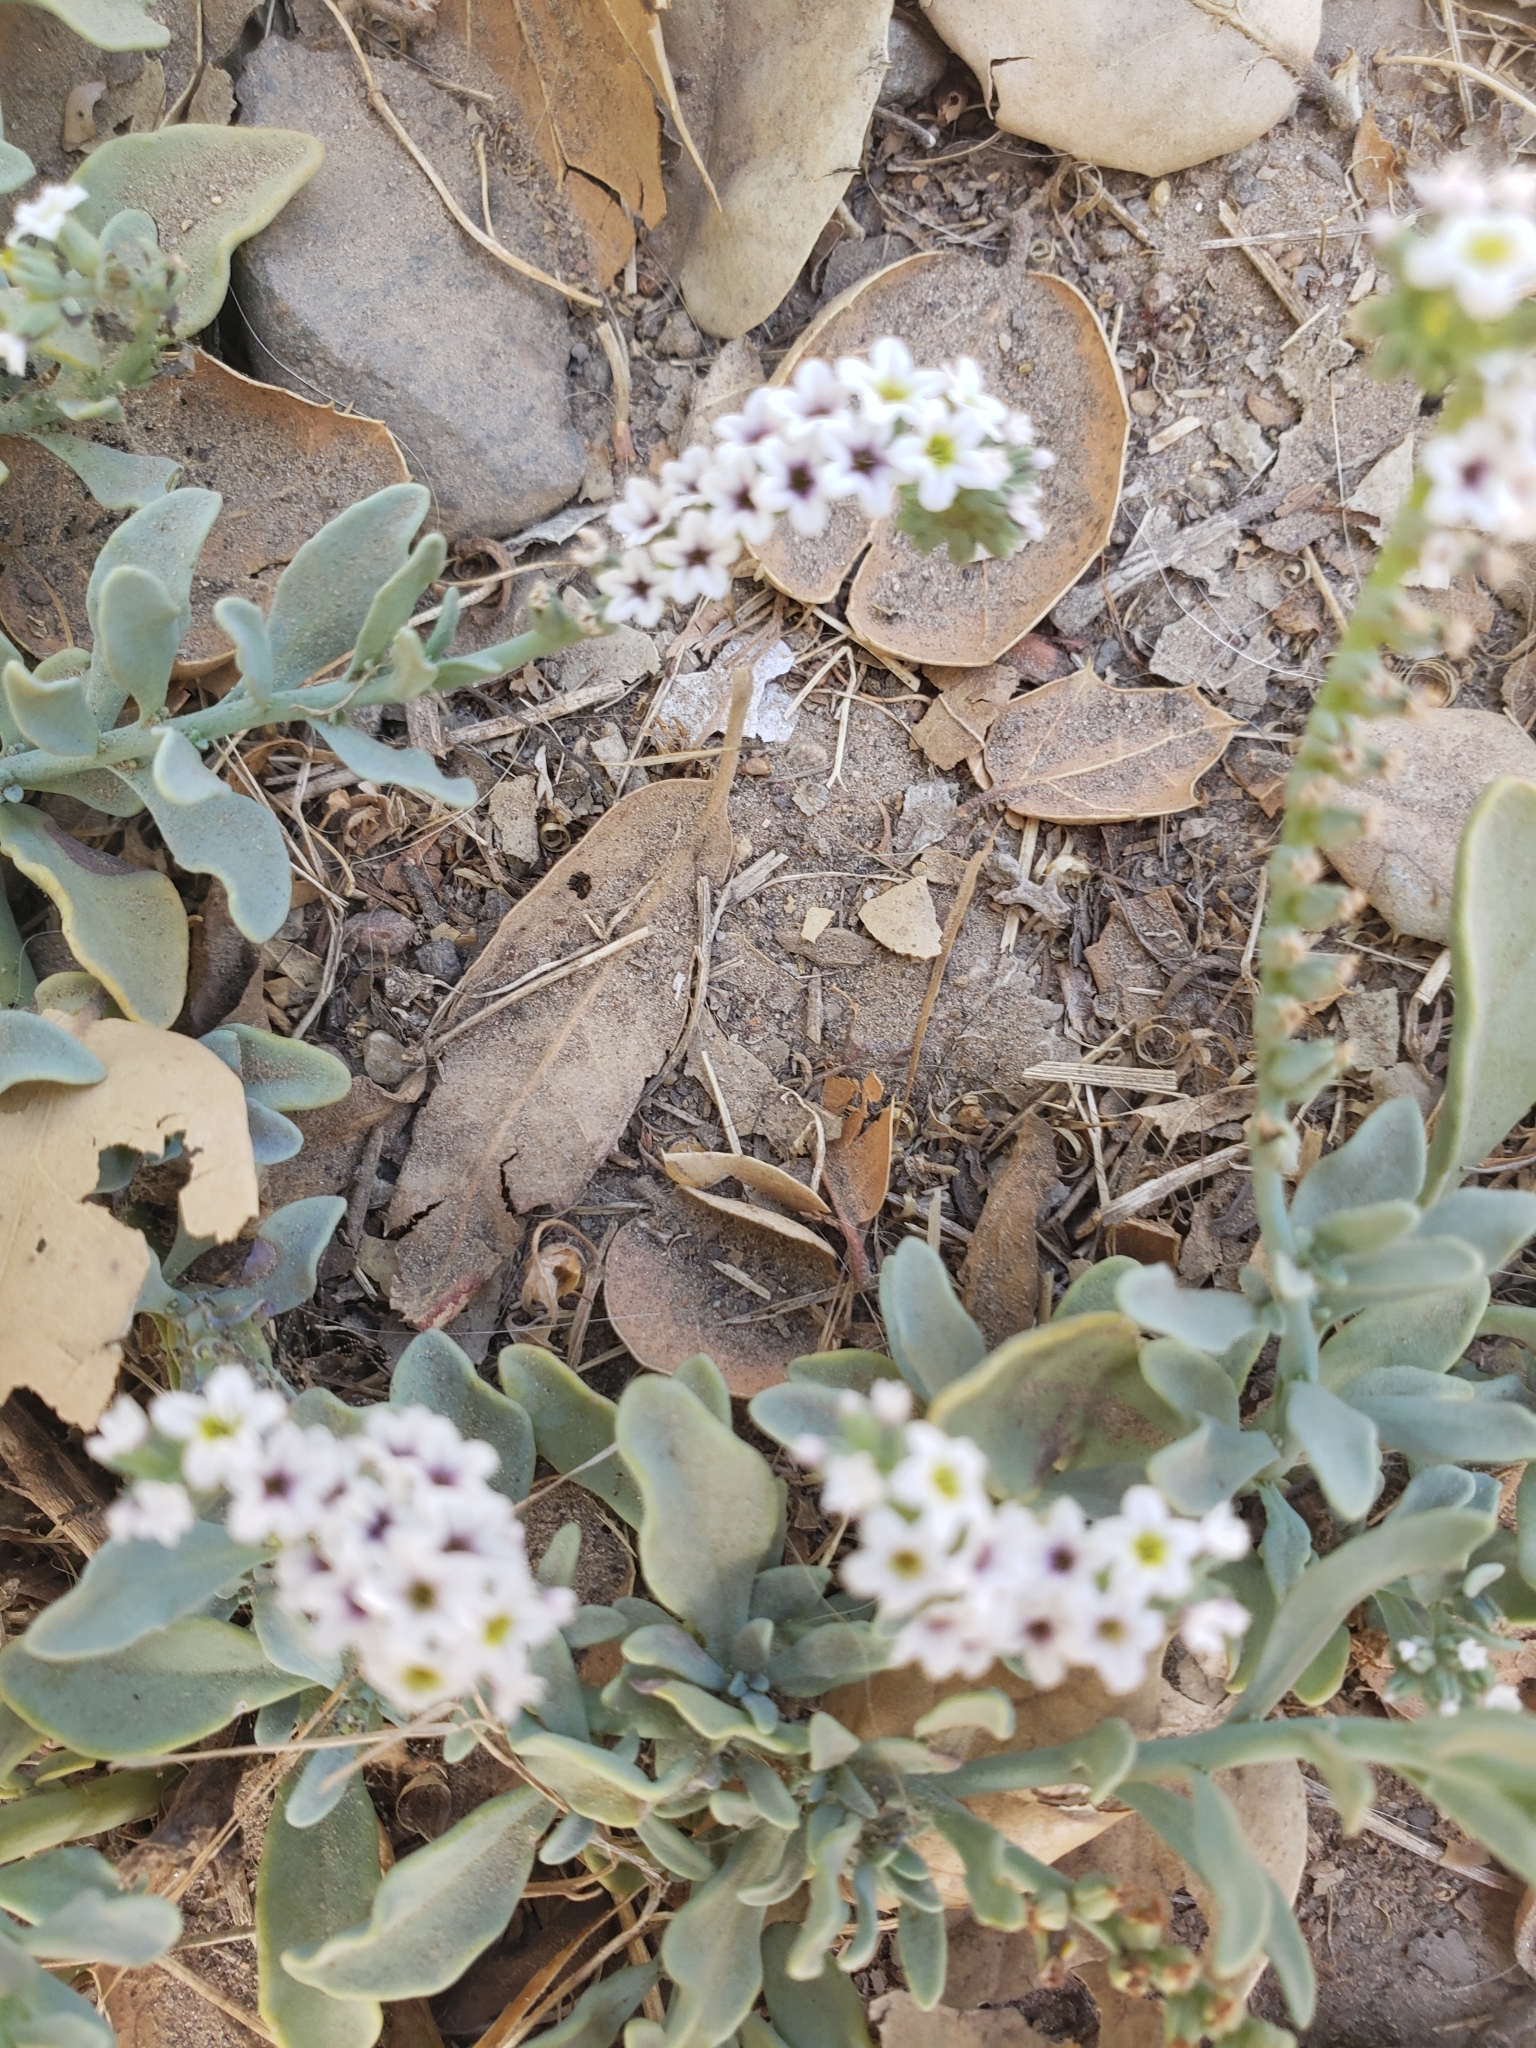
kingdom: Plantae
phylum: Tracheophyta
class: Magnoliopsida
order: Boraginales
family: Heliotropiaceae
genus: Heliotropium
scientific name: Heliotropium curassavicum
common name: Seaside heliotrope
